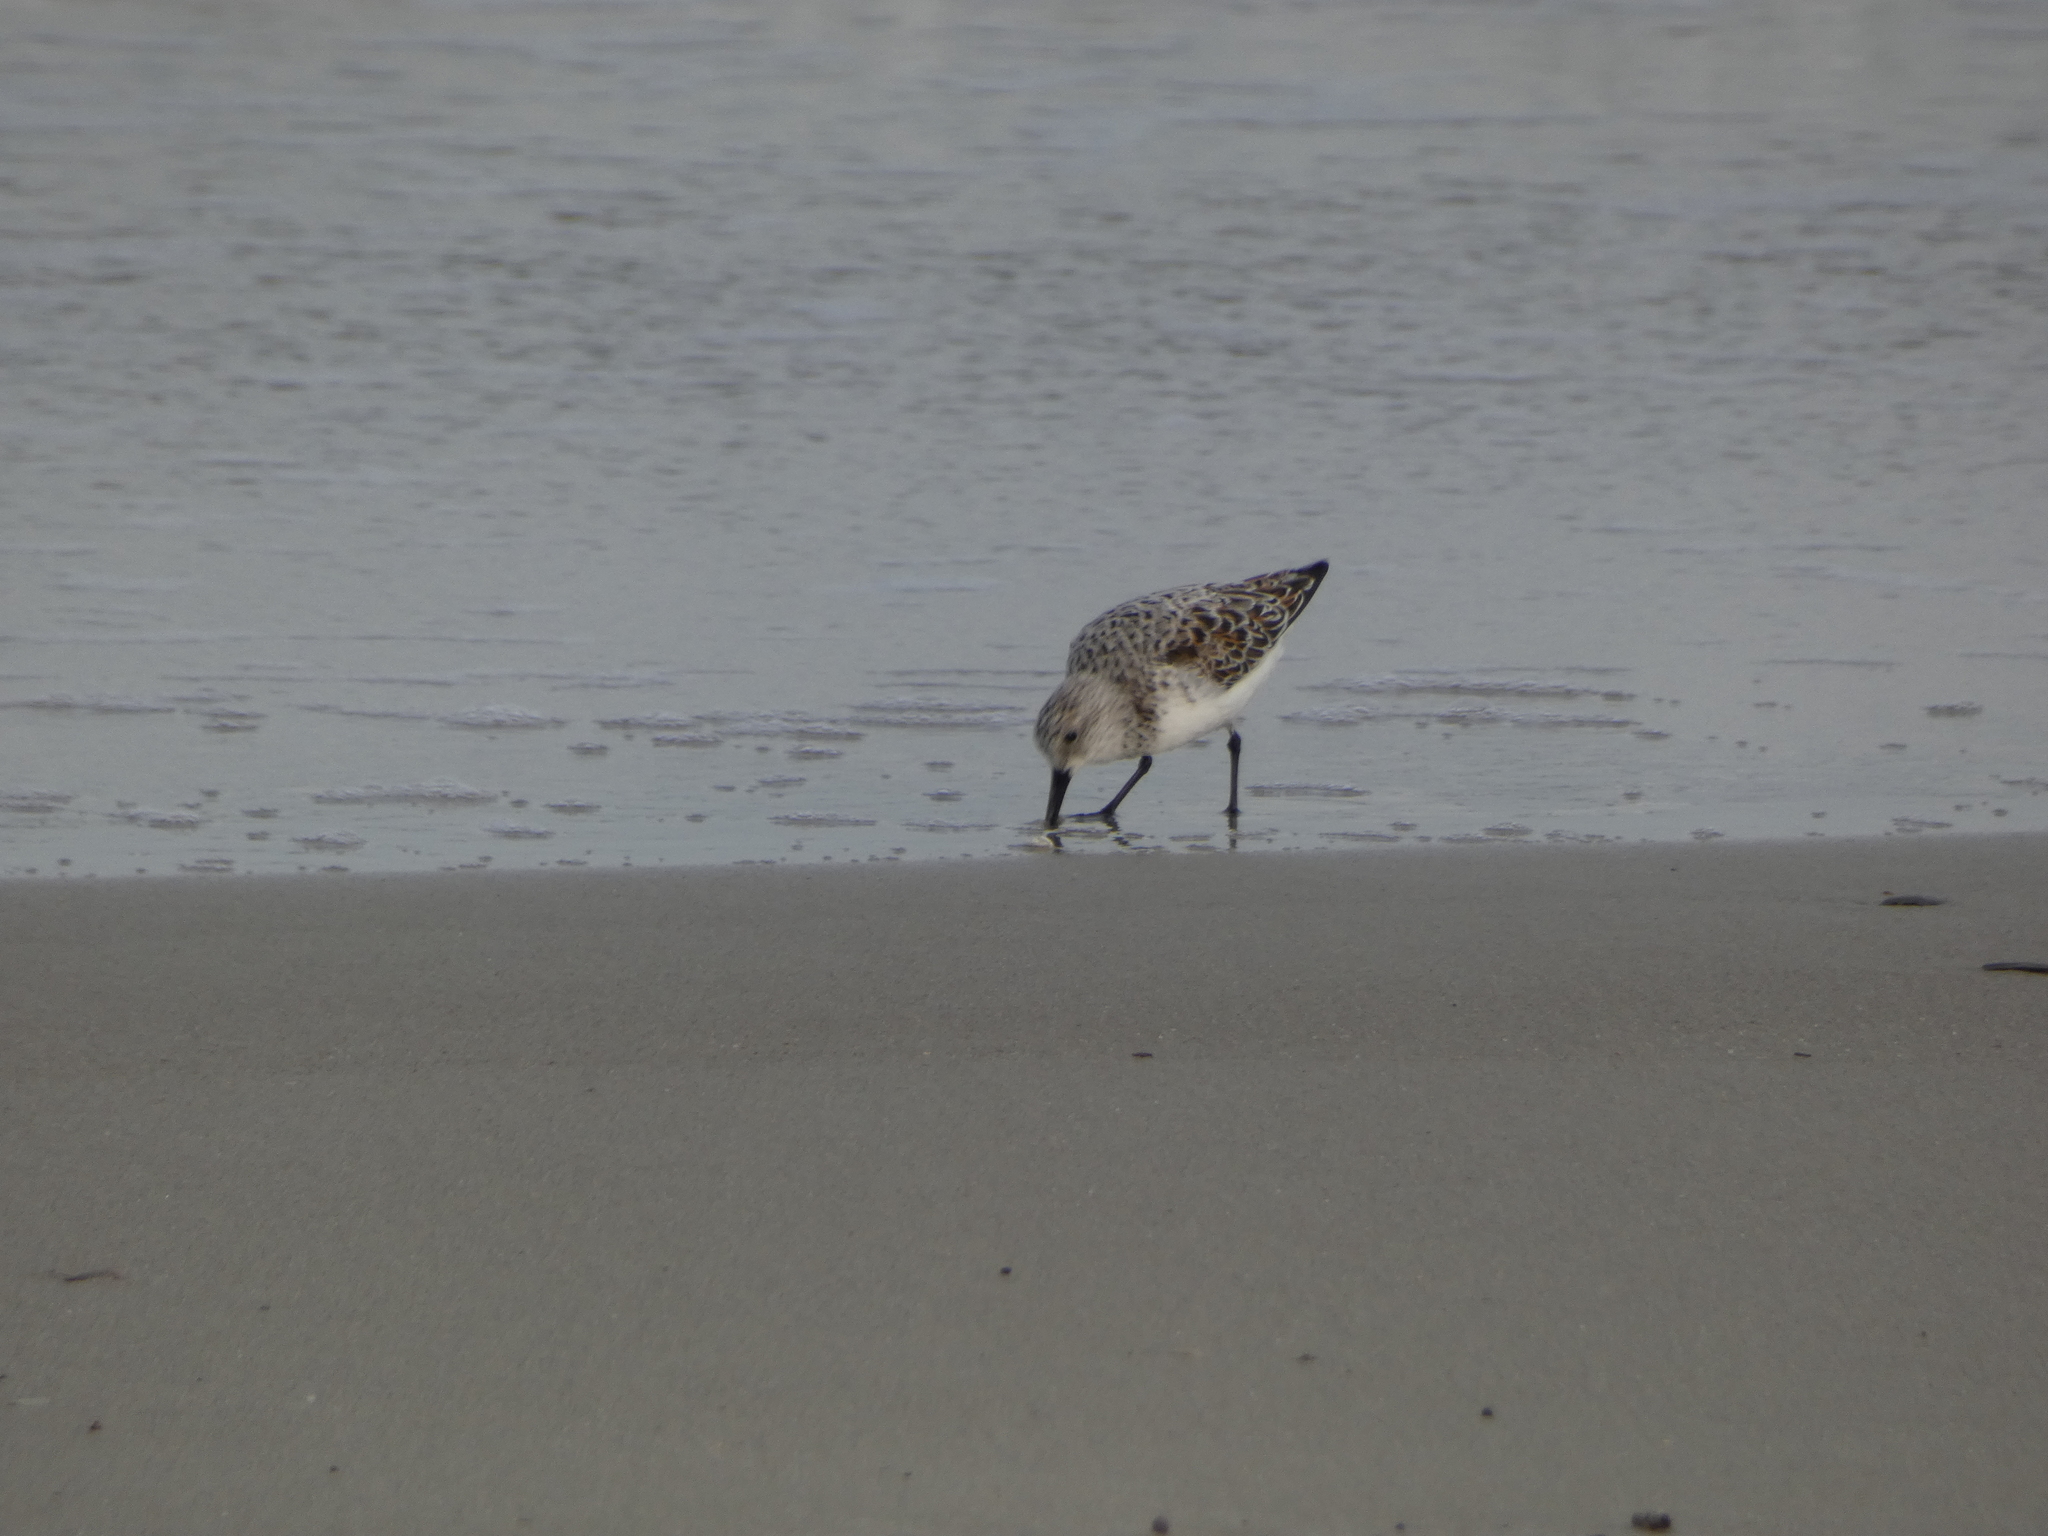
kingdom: Animalia
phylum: Chordata
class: Aves
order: Charadriiformes
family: Scolopacidae
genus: Calidris
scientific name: Calidris alba
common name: Sanderling
